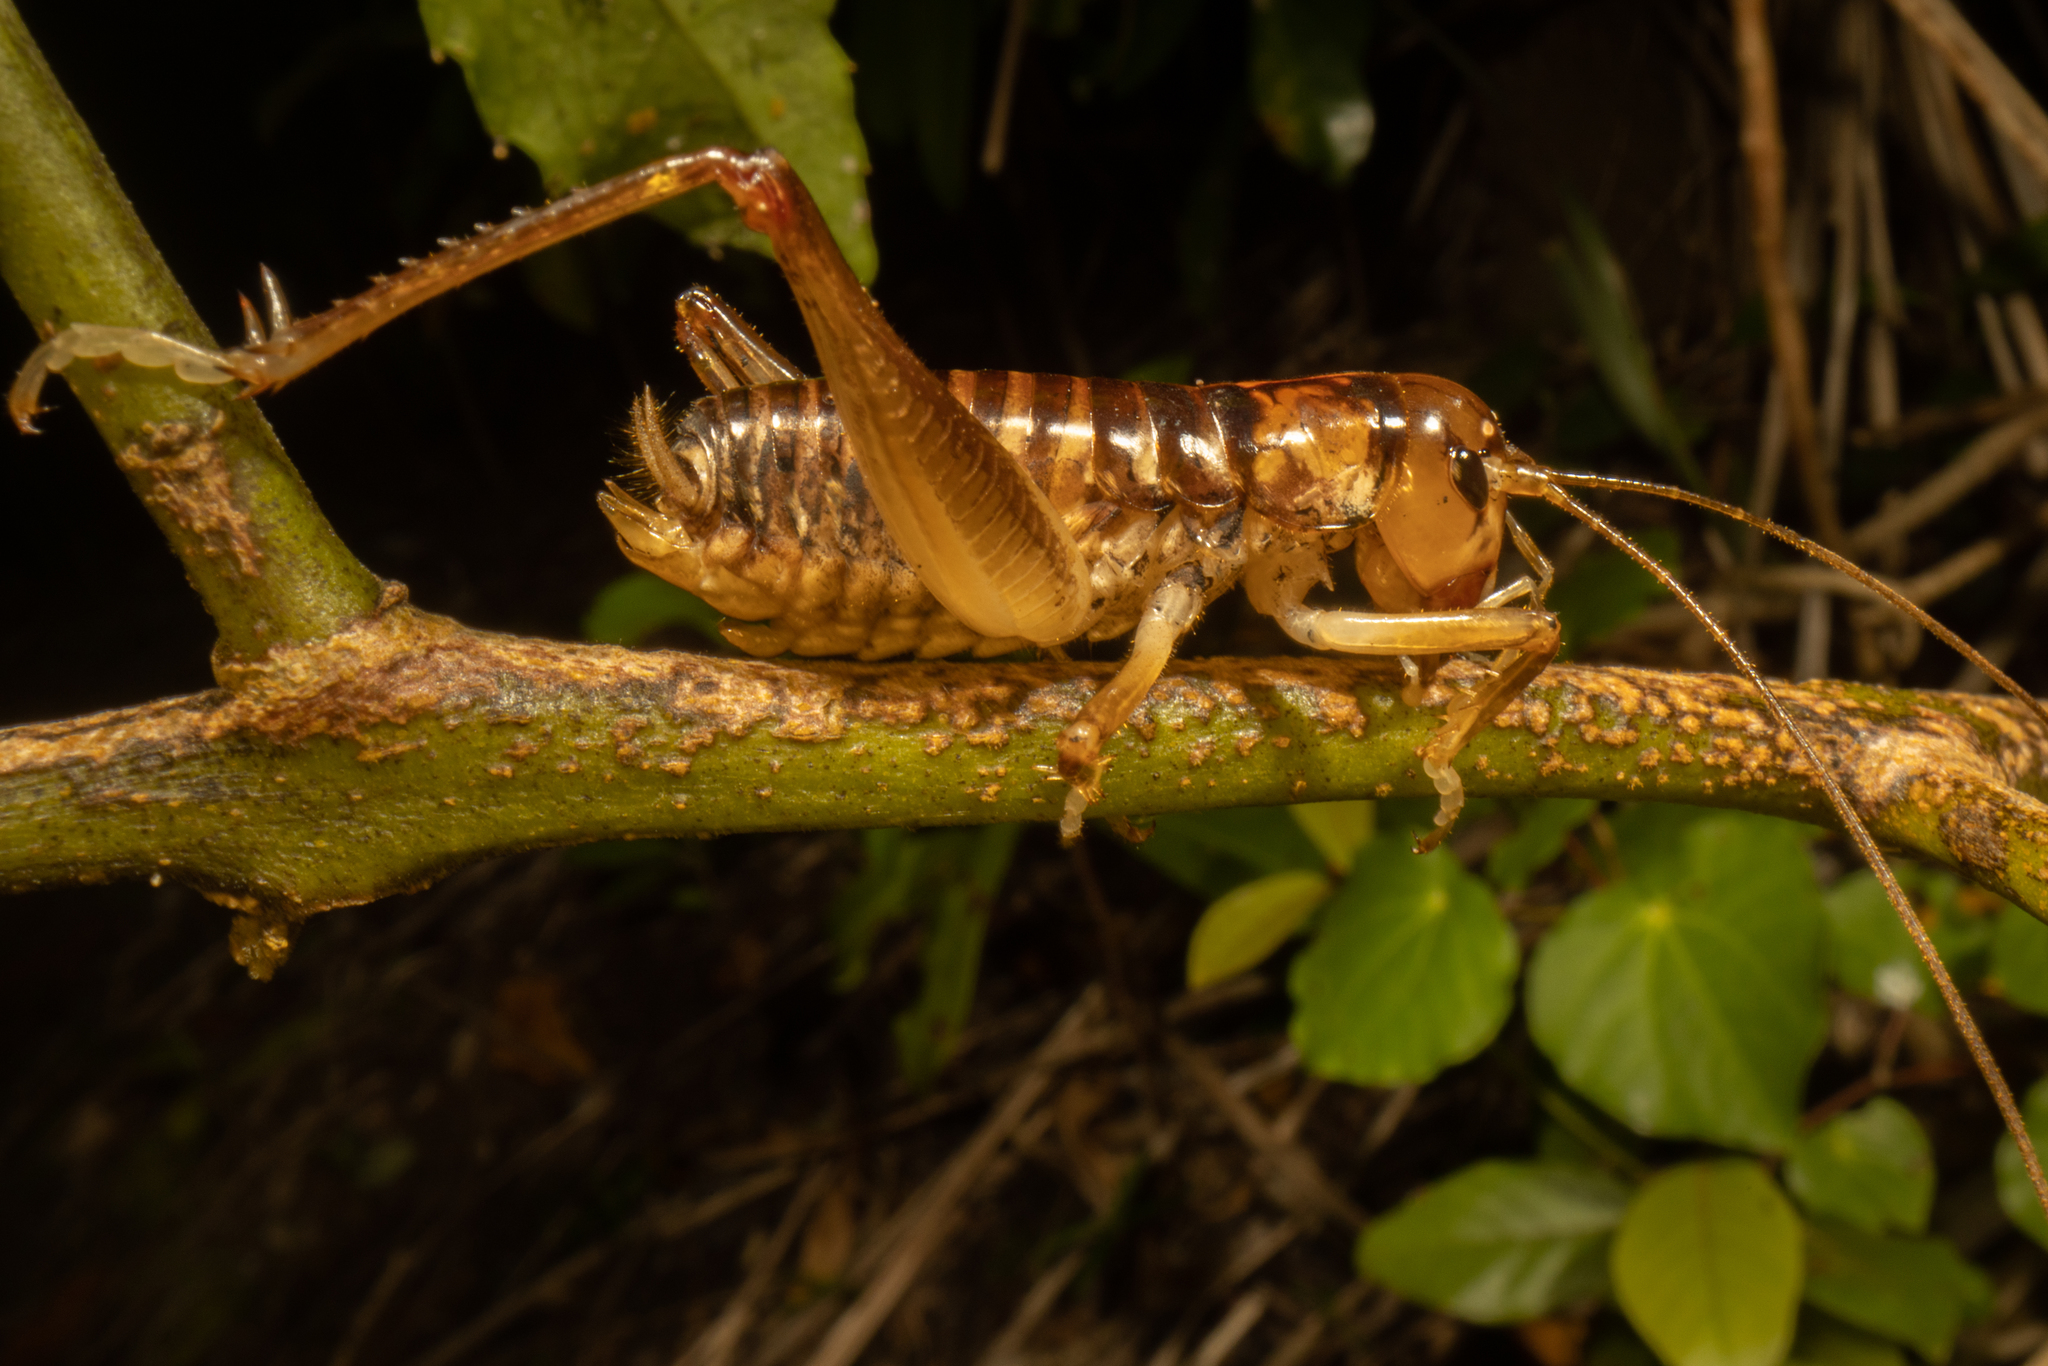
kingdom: Animalia
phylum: Arthropoda
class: Insecta
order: Orthoptera
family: Anostostomatidae
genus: Hemiandrus
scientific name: Hemiandrus pallitarsis
